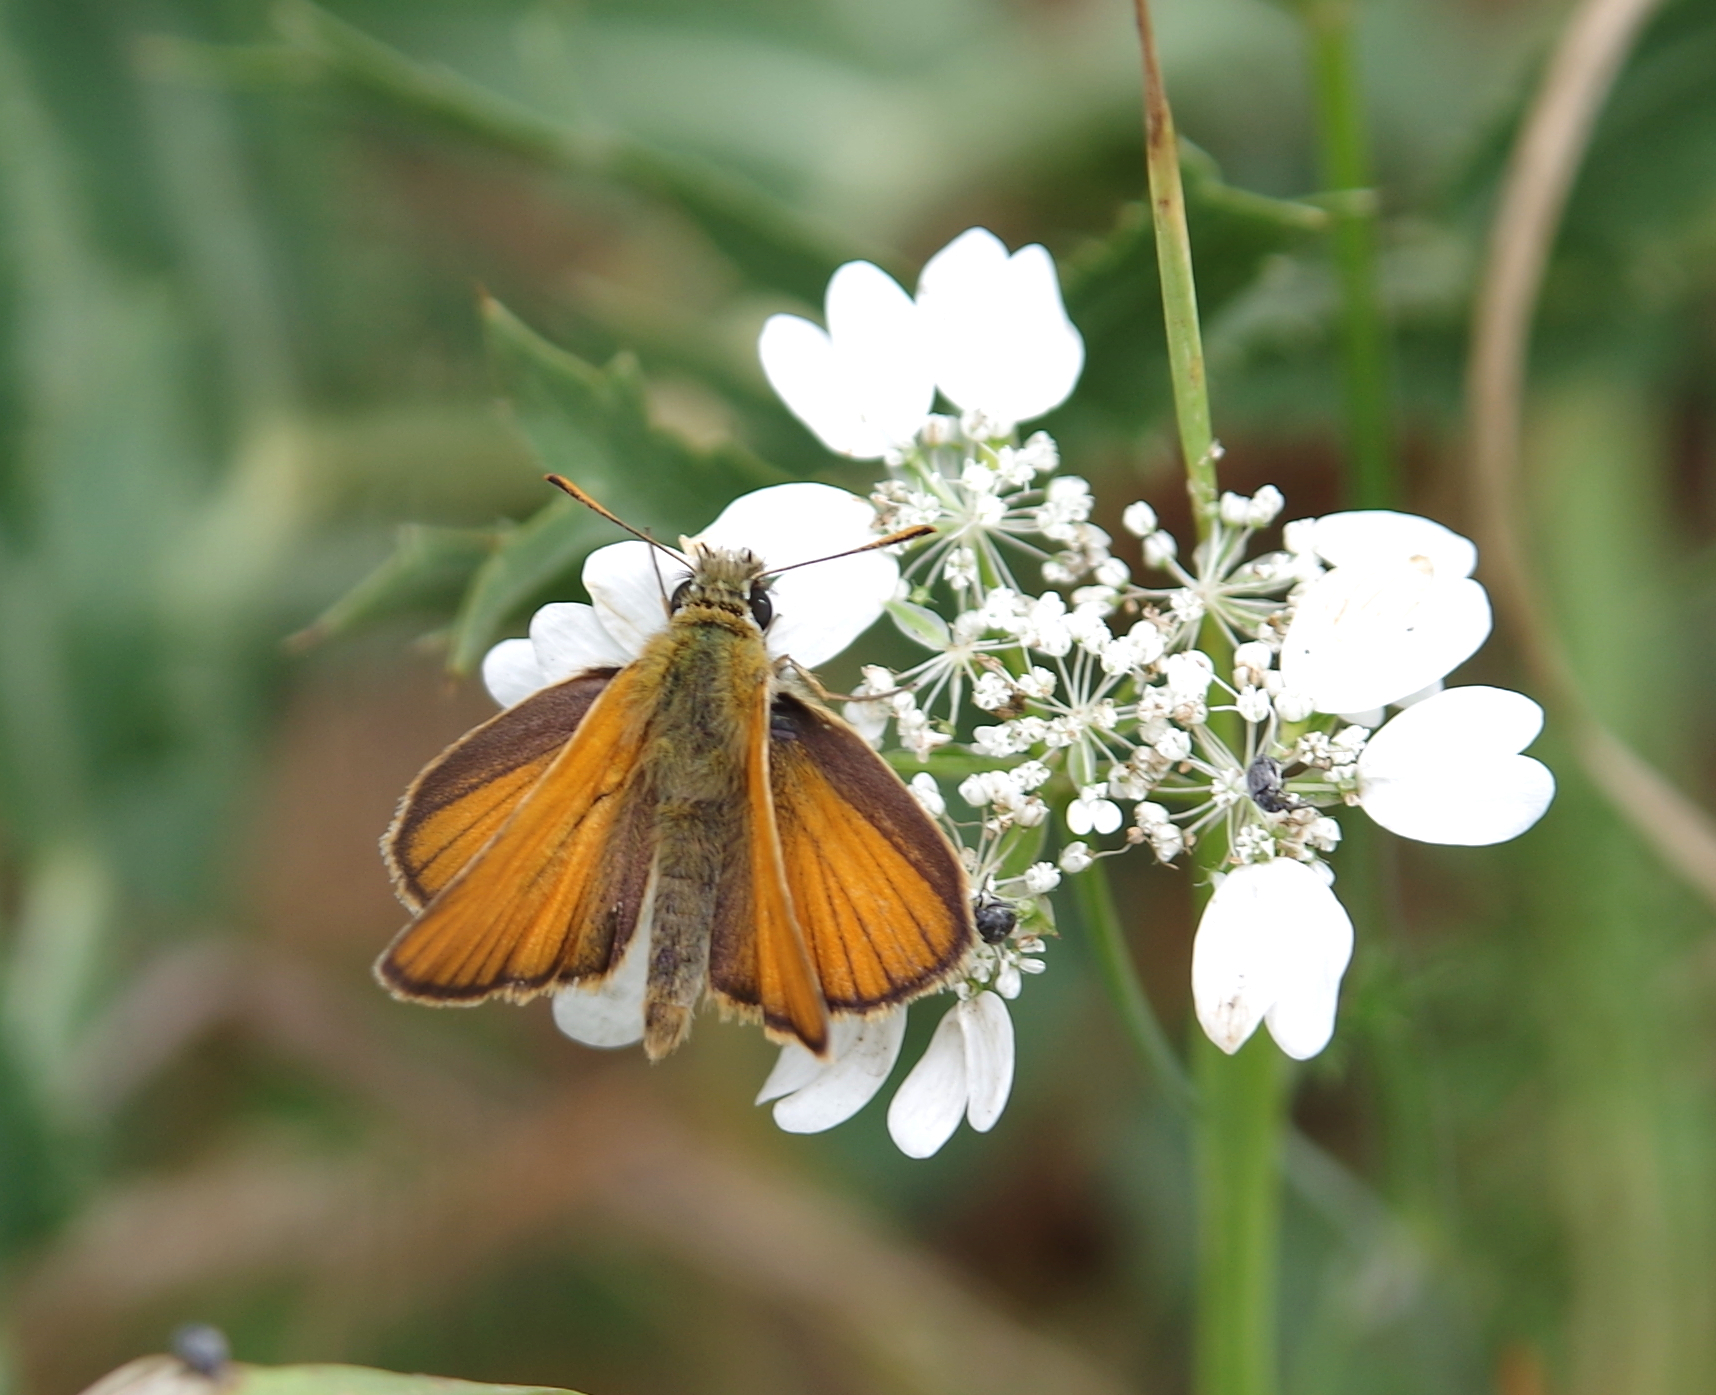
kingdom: Animalia
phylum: Arthropoda
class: Insecta
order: Lepidoptera
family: Hesperiidae
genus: Thymelicus
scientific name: Thymelicus sylvestris
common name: Small skipper
